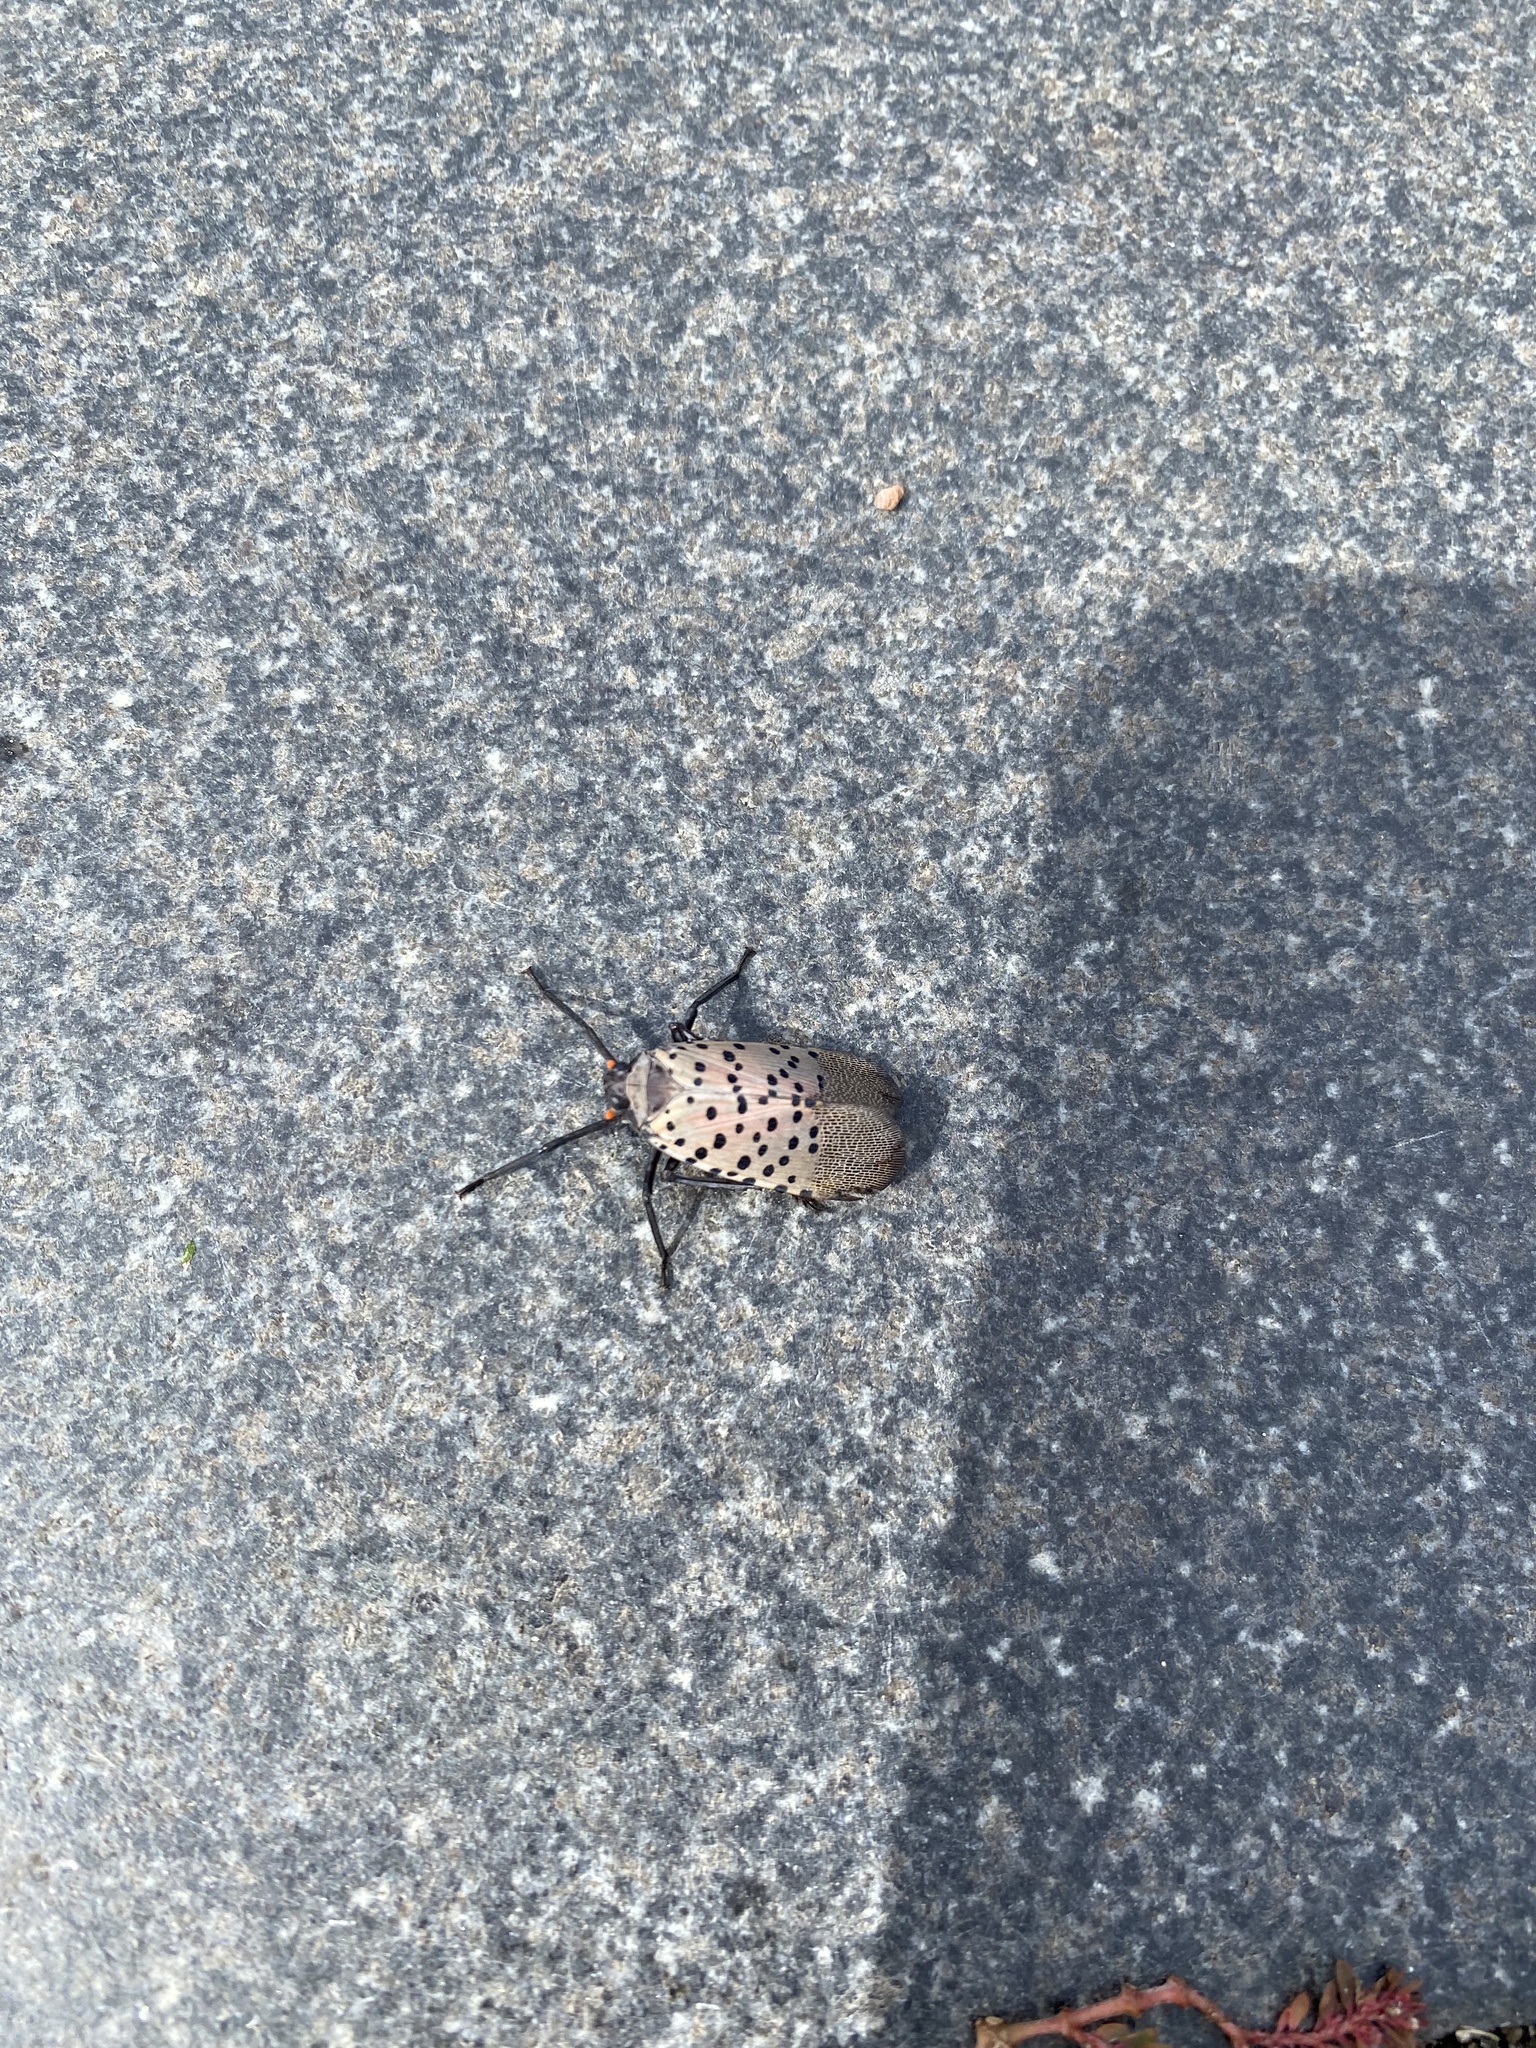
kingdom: Animalia
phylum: Arthropoda
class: Insecta
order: Hemiptera
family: Fulgoridae
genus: Lycorma
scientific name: Lycorma delicatula
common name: Spotted lanternfly
